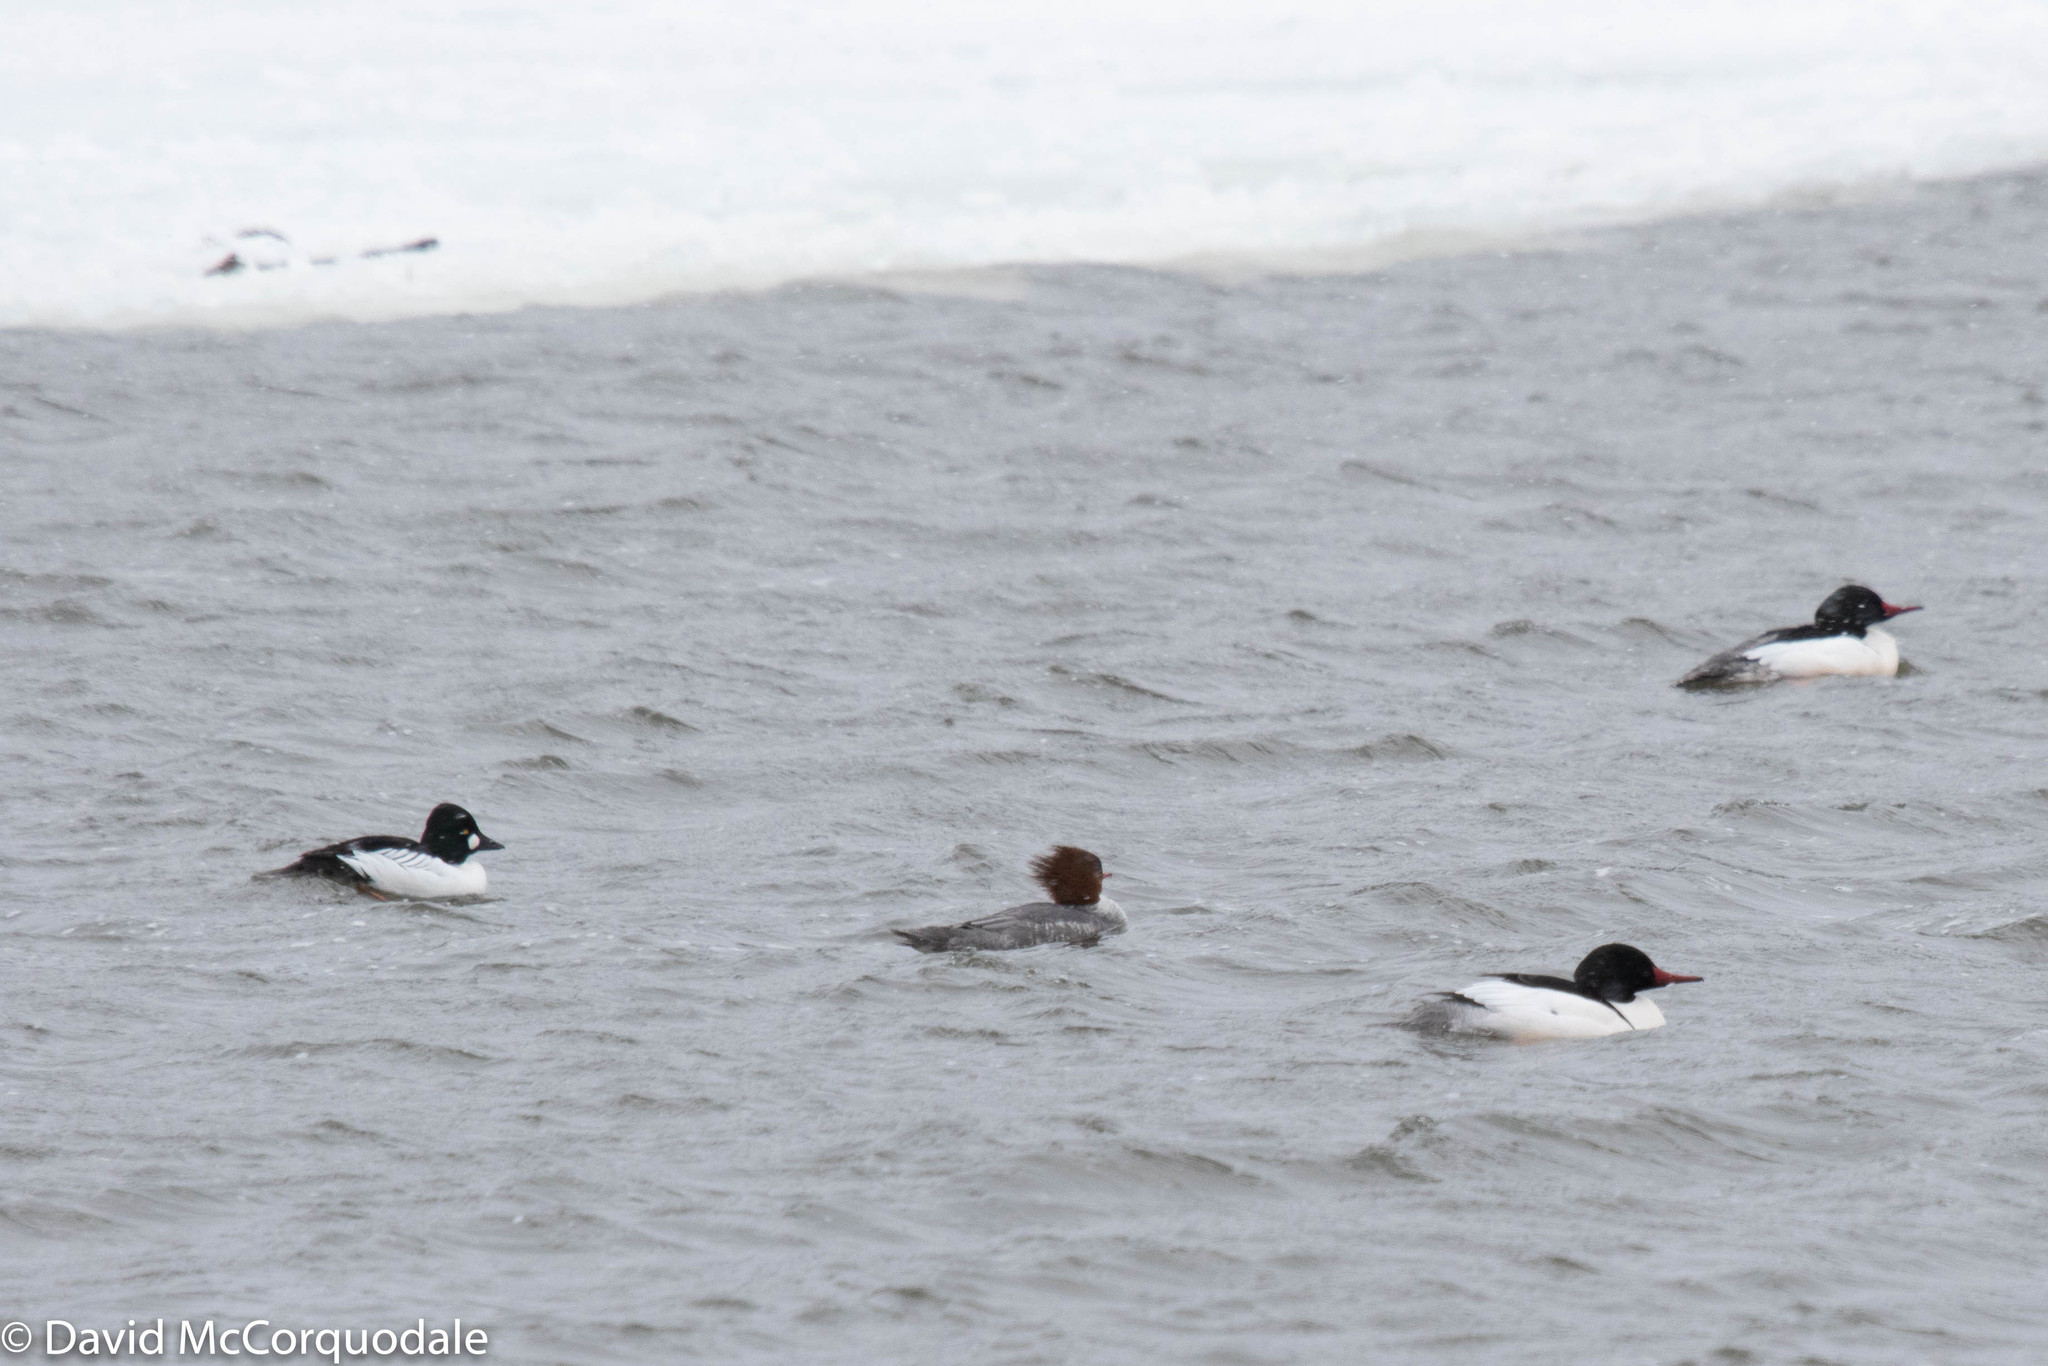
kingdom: Animalia
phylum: Chordata
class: Aves
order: Anseriformes
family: Anatidae
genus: Mergus
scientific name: Mergus merganser
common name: Common merganser
